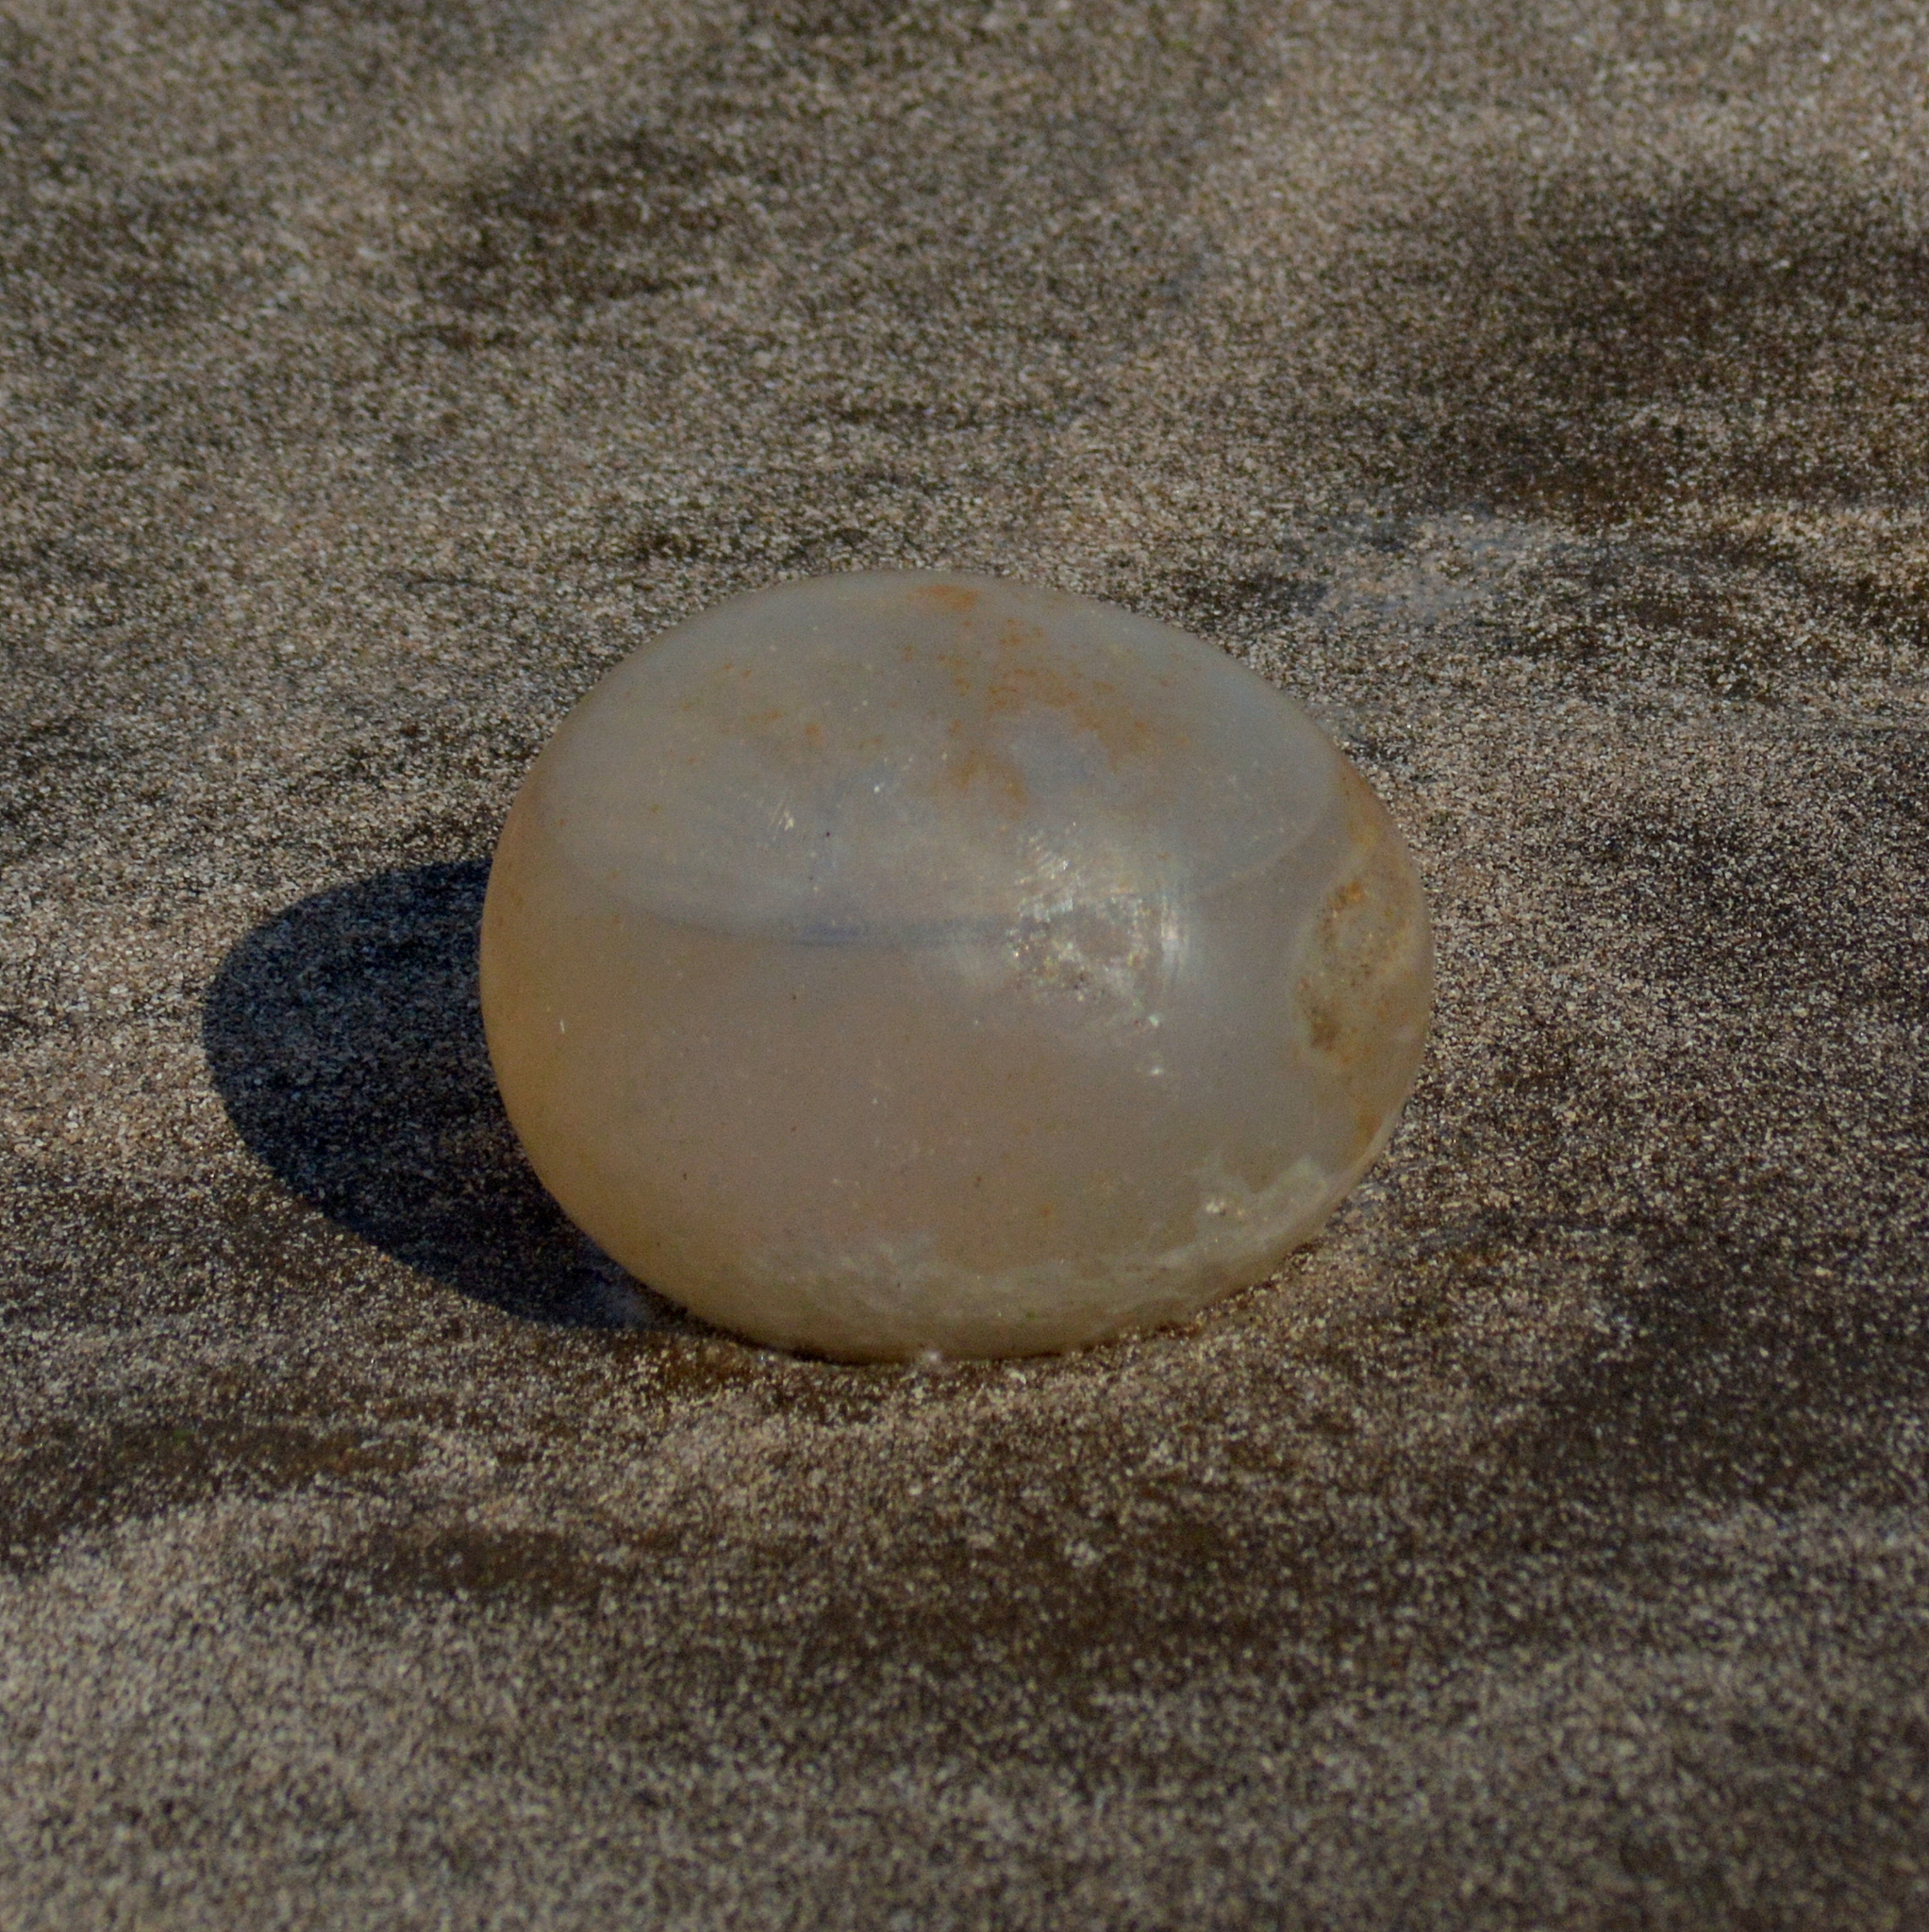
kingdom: Animalia
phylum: Mollusca
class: Gastropoda
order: Neogastropoda
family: Volutidae
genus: Pachycymbiola
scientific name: Pachycymbiola brasiliana
